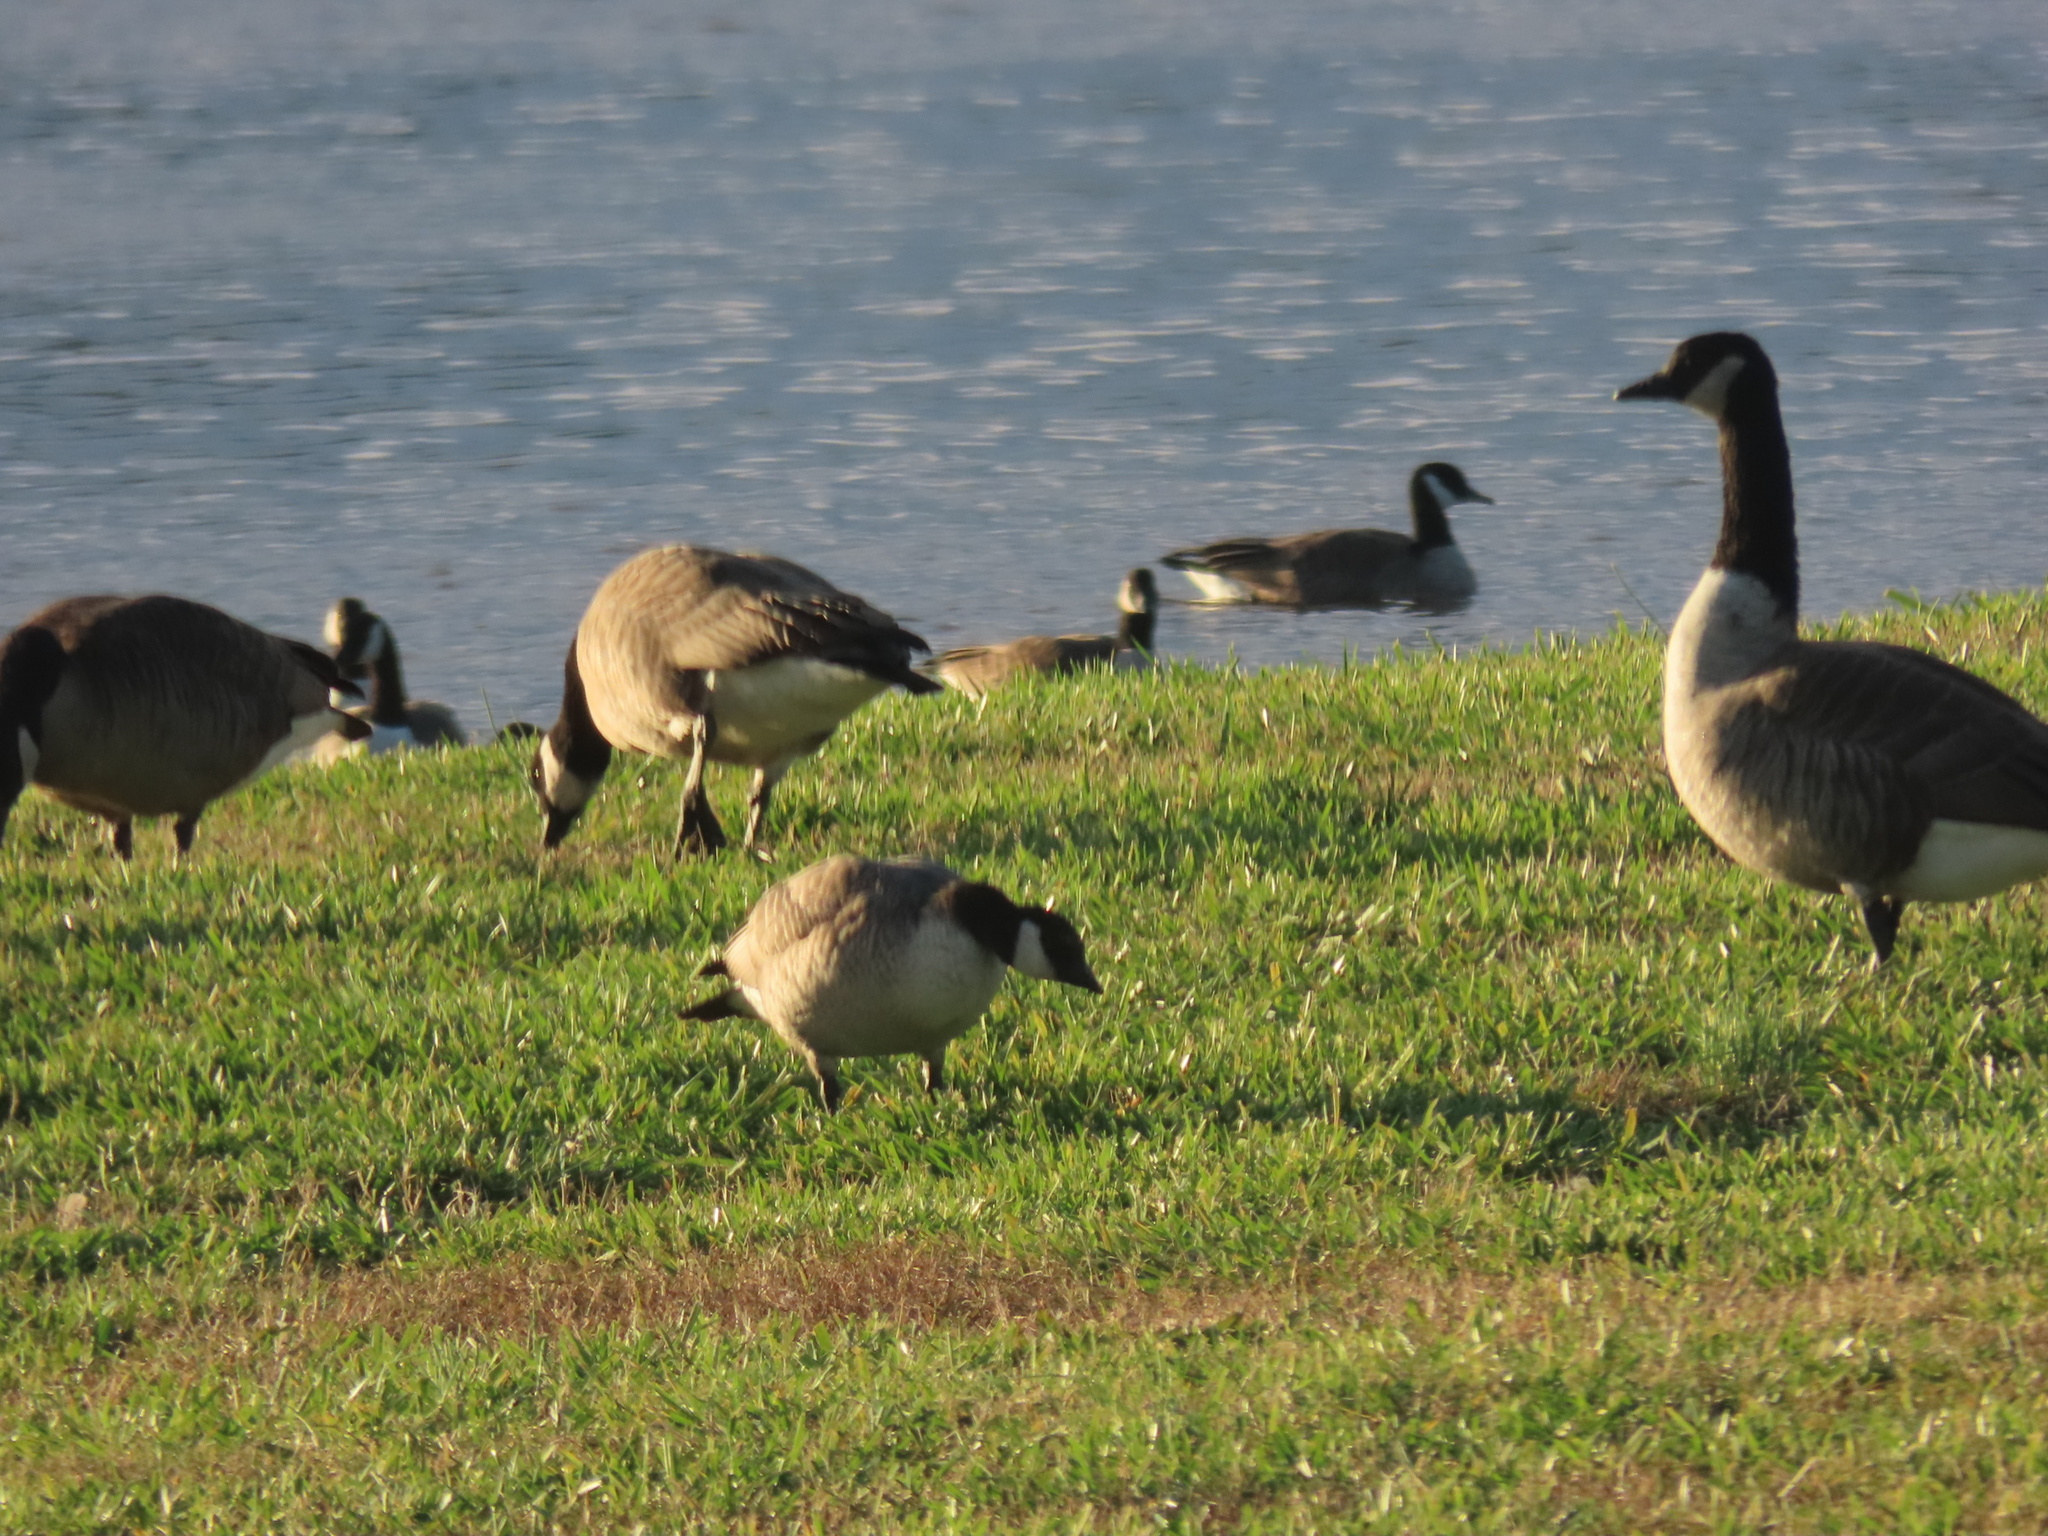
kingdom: Animalia
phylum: Chordata
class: Aves
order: Anseriformes
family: Anatidae
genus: Branta
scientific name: Branta hutchinsii
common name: Cackling goose
